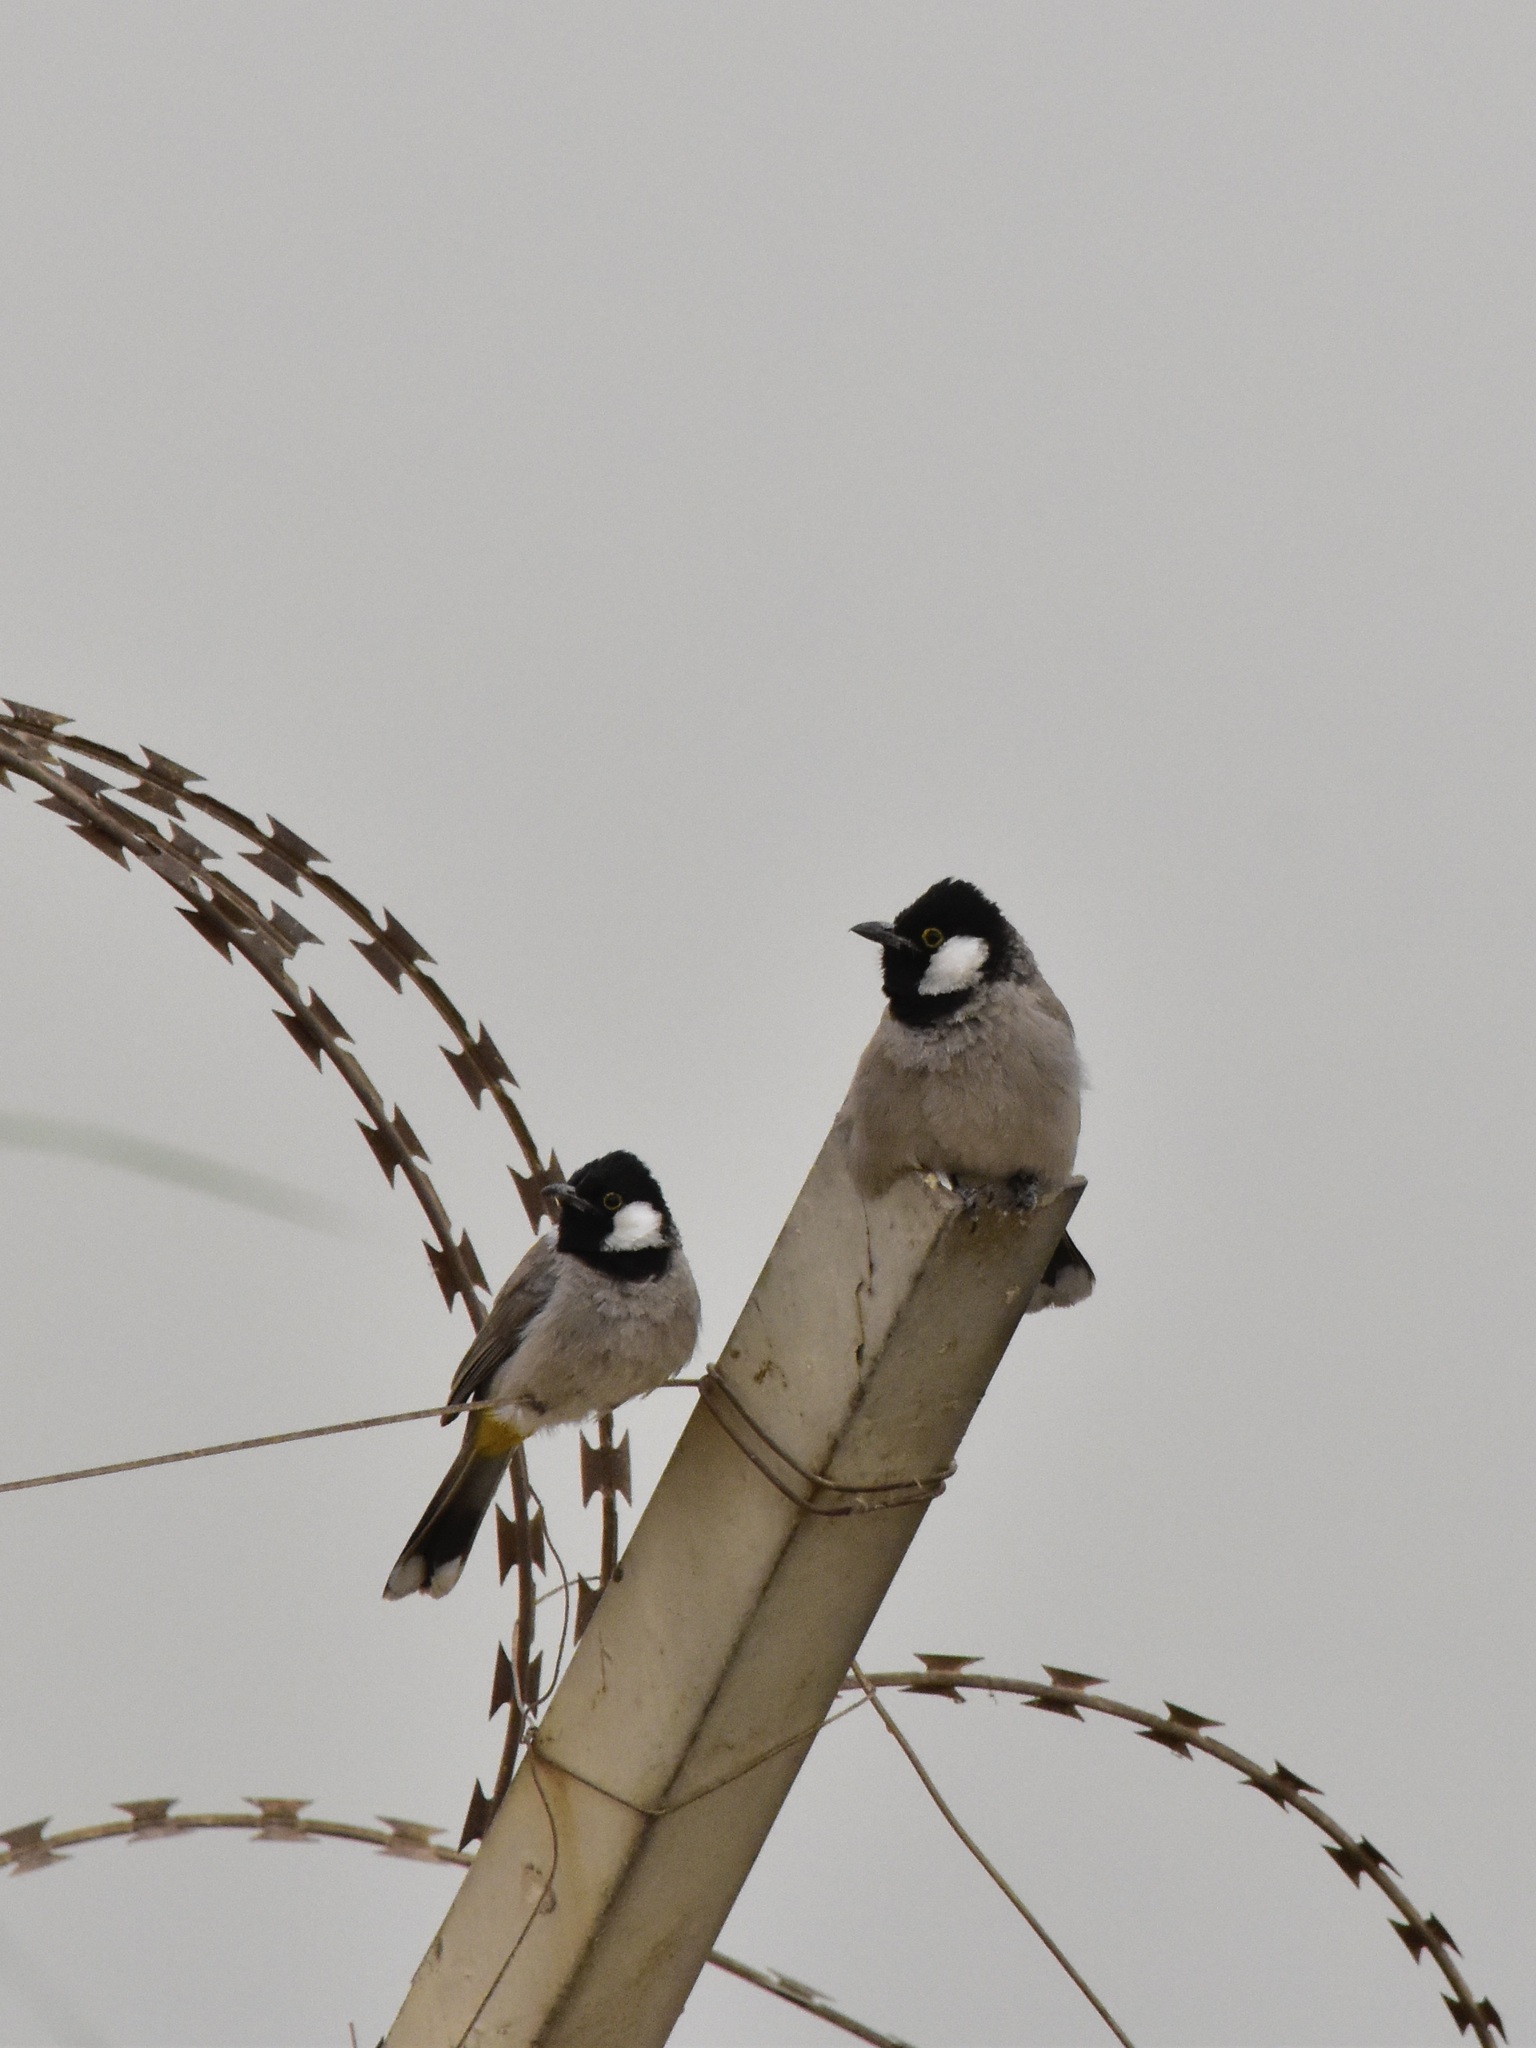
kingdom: Animalia
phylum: Chordata
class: Aves
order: Passeriformes
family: Pycnonotidae
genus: Pycnonotus
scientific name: Pycnonotus leucotis
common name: White-eared bulbul
